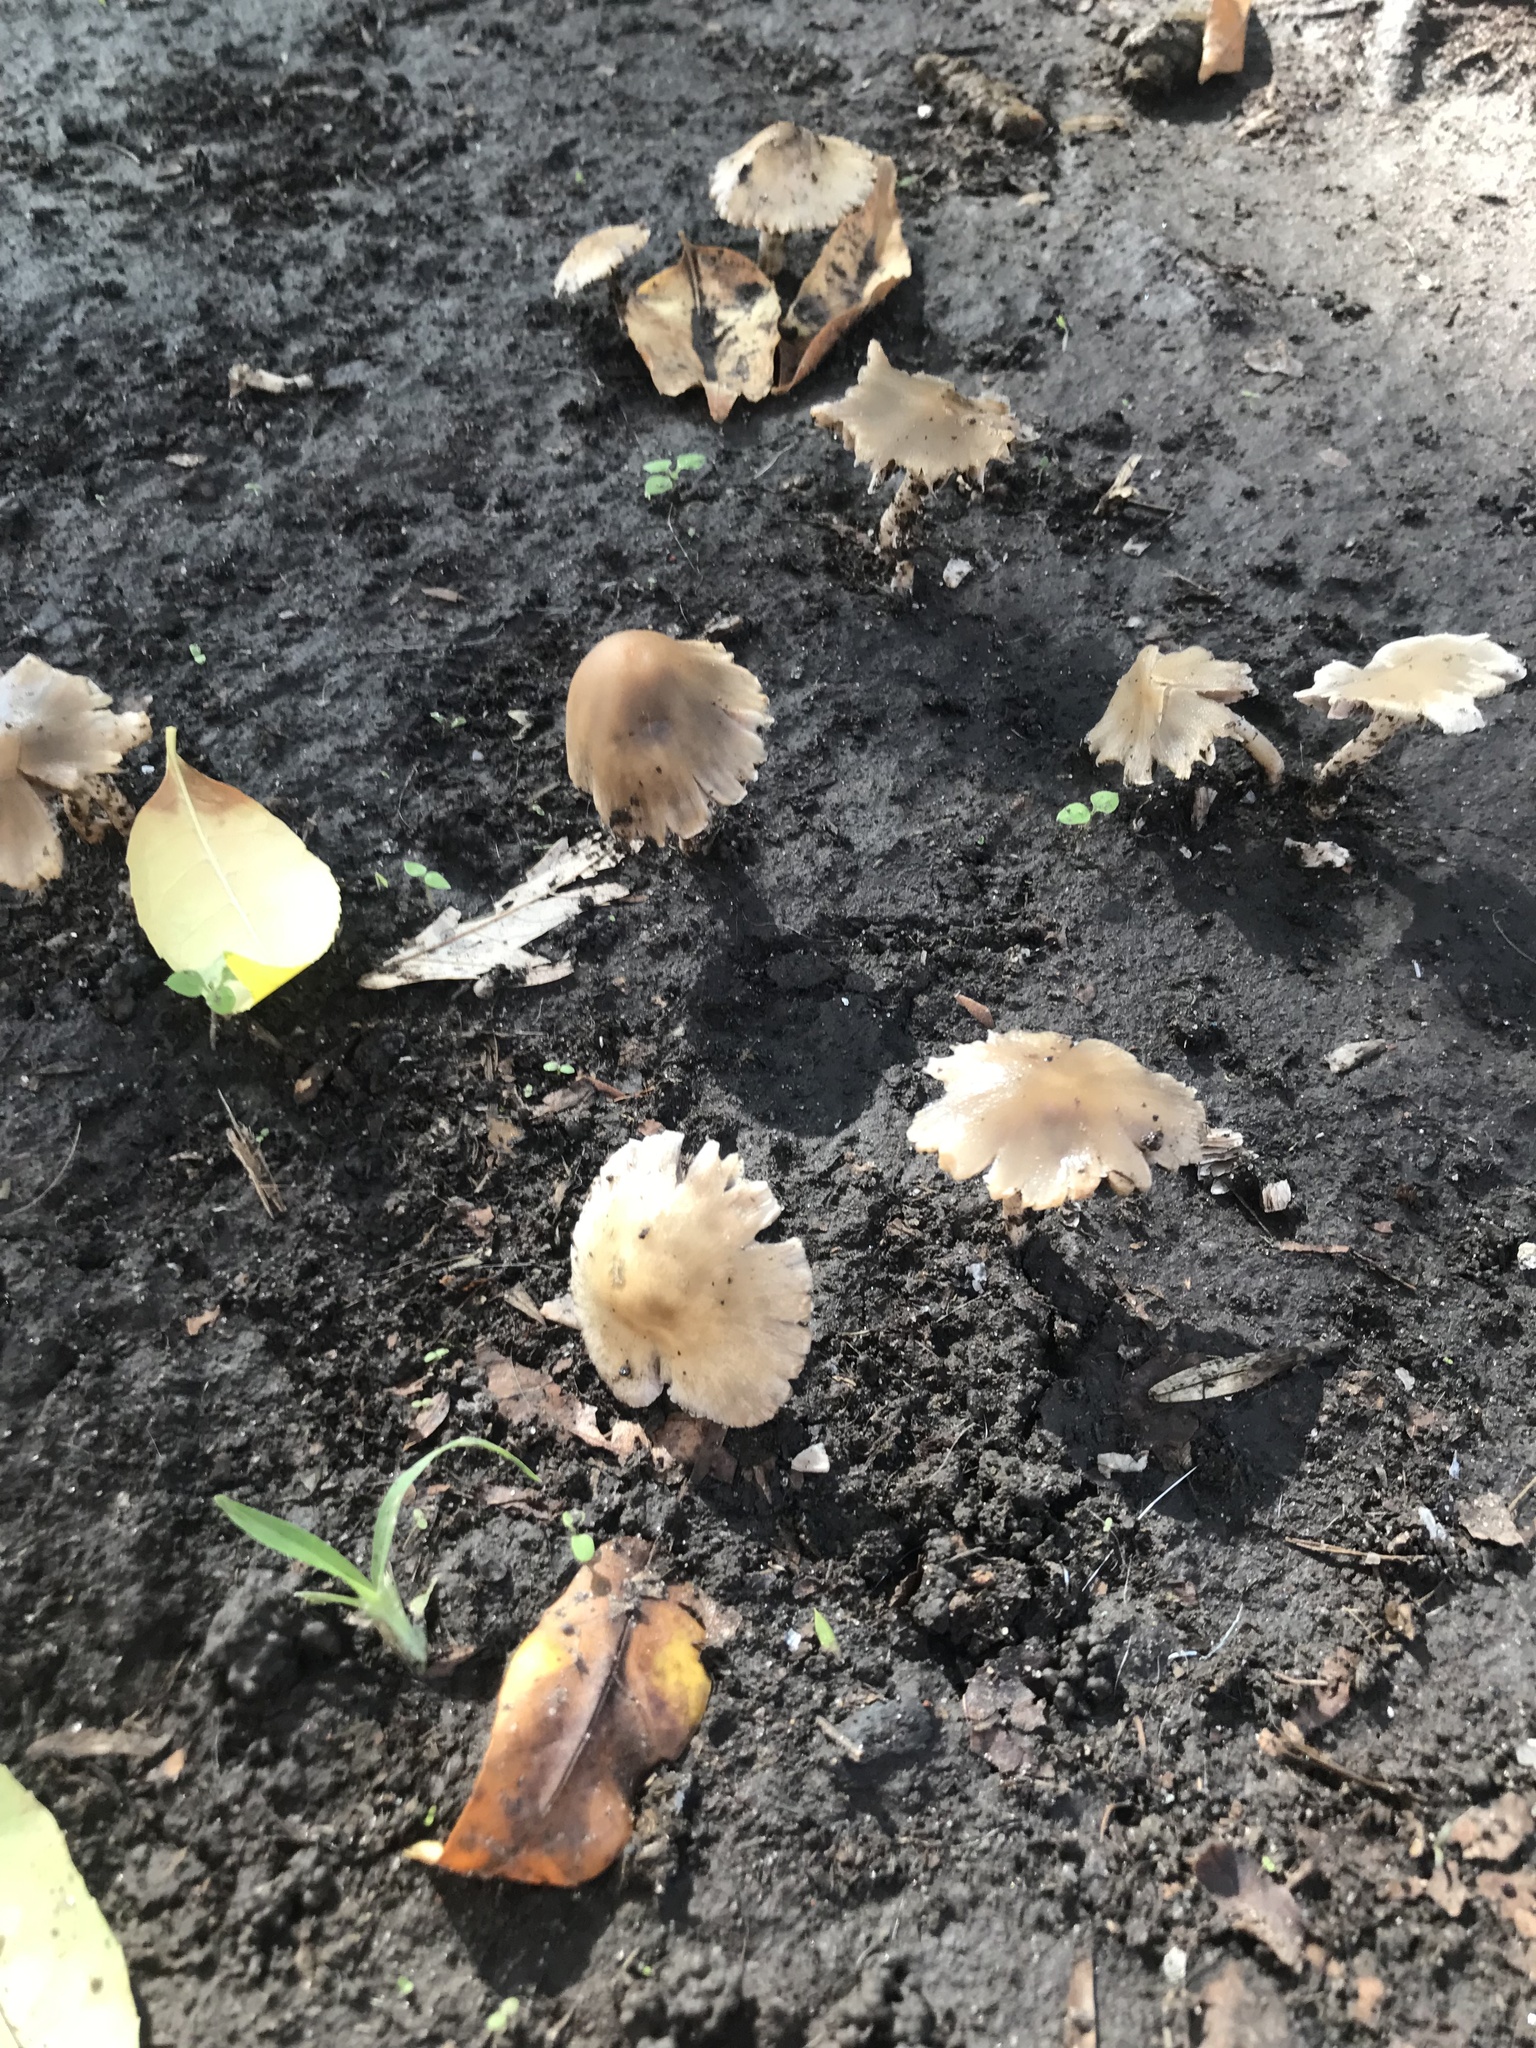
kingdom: Fungi
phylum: Basidiomycota
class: Agaricomycetes
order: Agaricales
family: Mycenaceae
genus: Mycena
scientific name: Mycena galericulata
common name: Bonnet mycena
